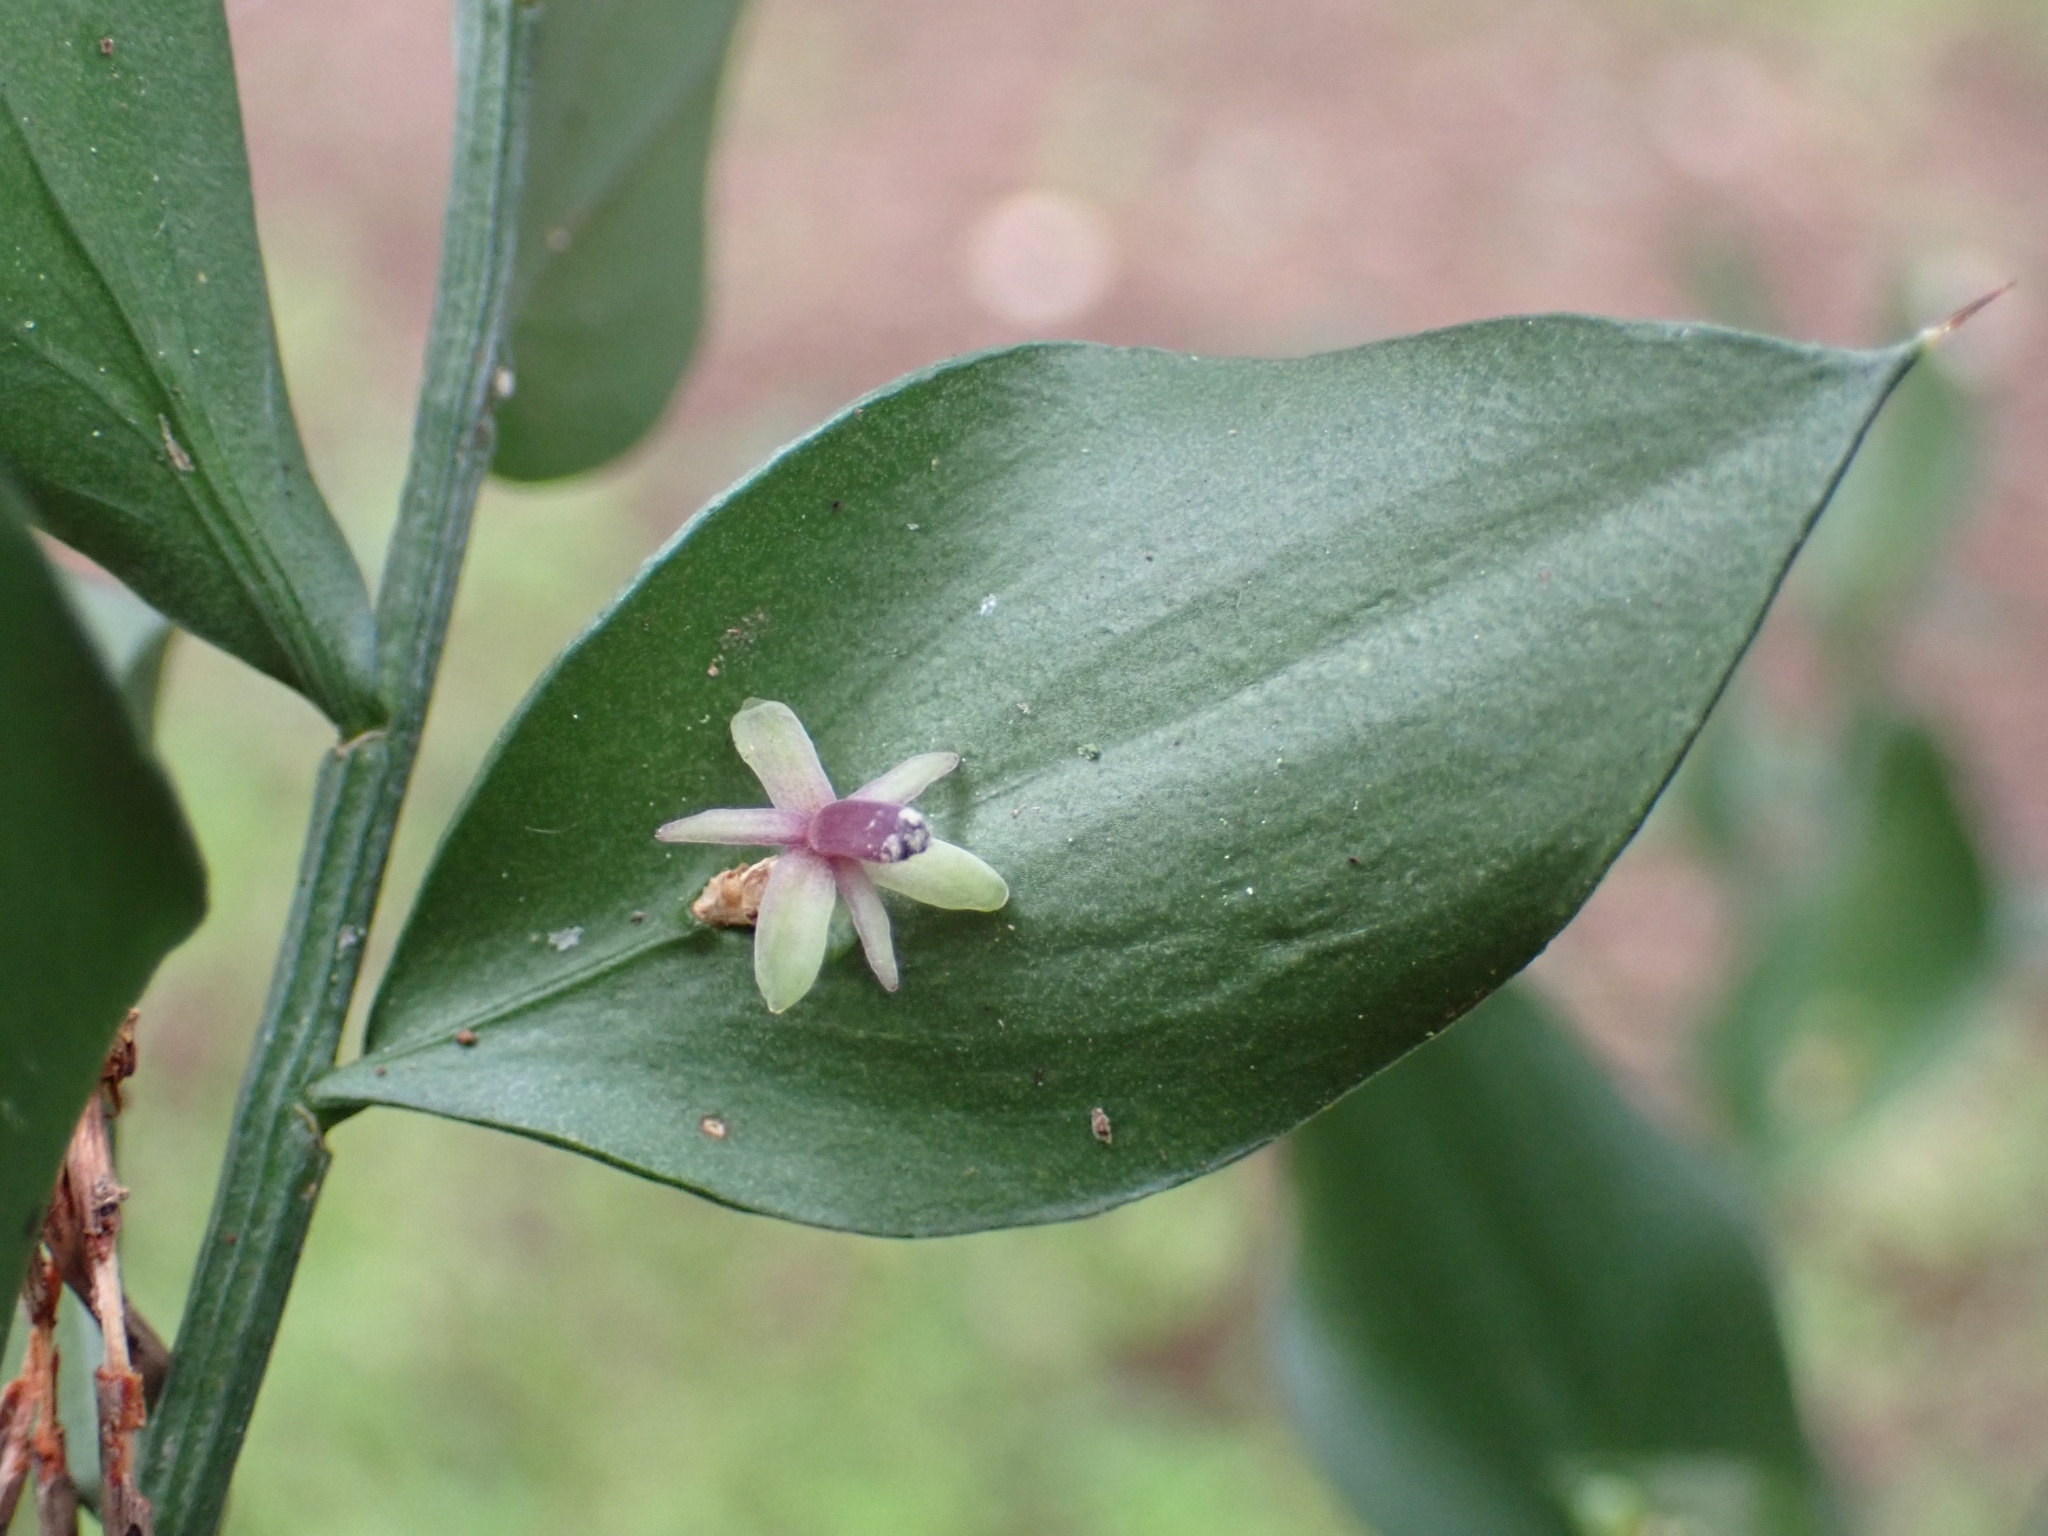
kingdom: Plantae
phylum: Tracheophyta
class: Liliopsida
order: Asparagales
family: Asparagaceae
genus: Ruscus
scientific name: Ruscus aculeatus
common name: Butcher's-broom
